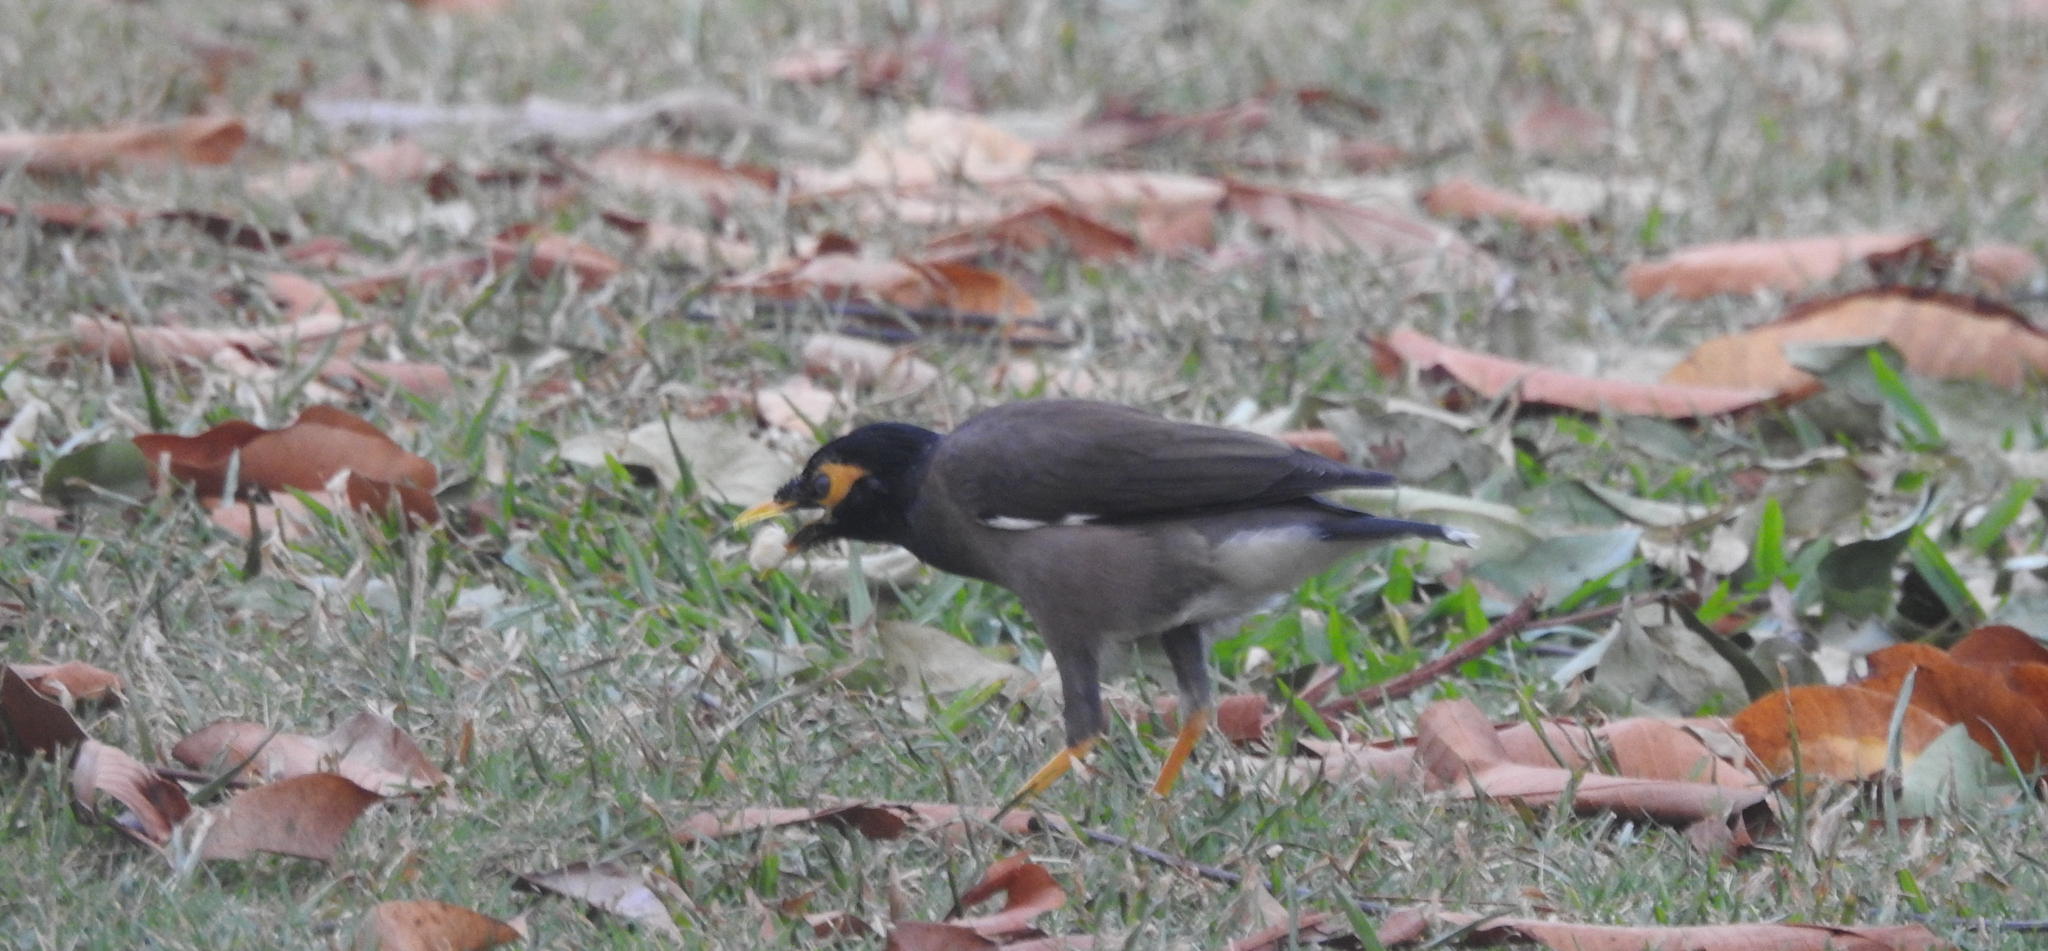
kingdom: Animalia
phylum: Chordata
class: Aves
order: Passeriformes
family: Sturnidae
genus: Acridotheres
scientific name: Acridotheres tristis
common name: Common myna
